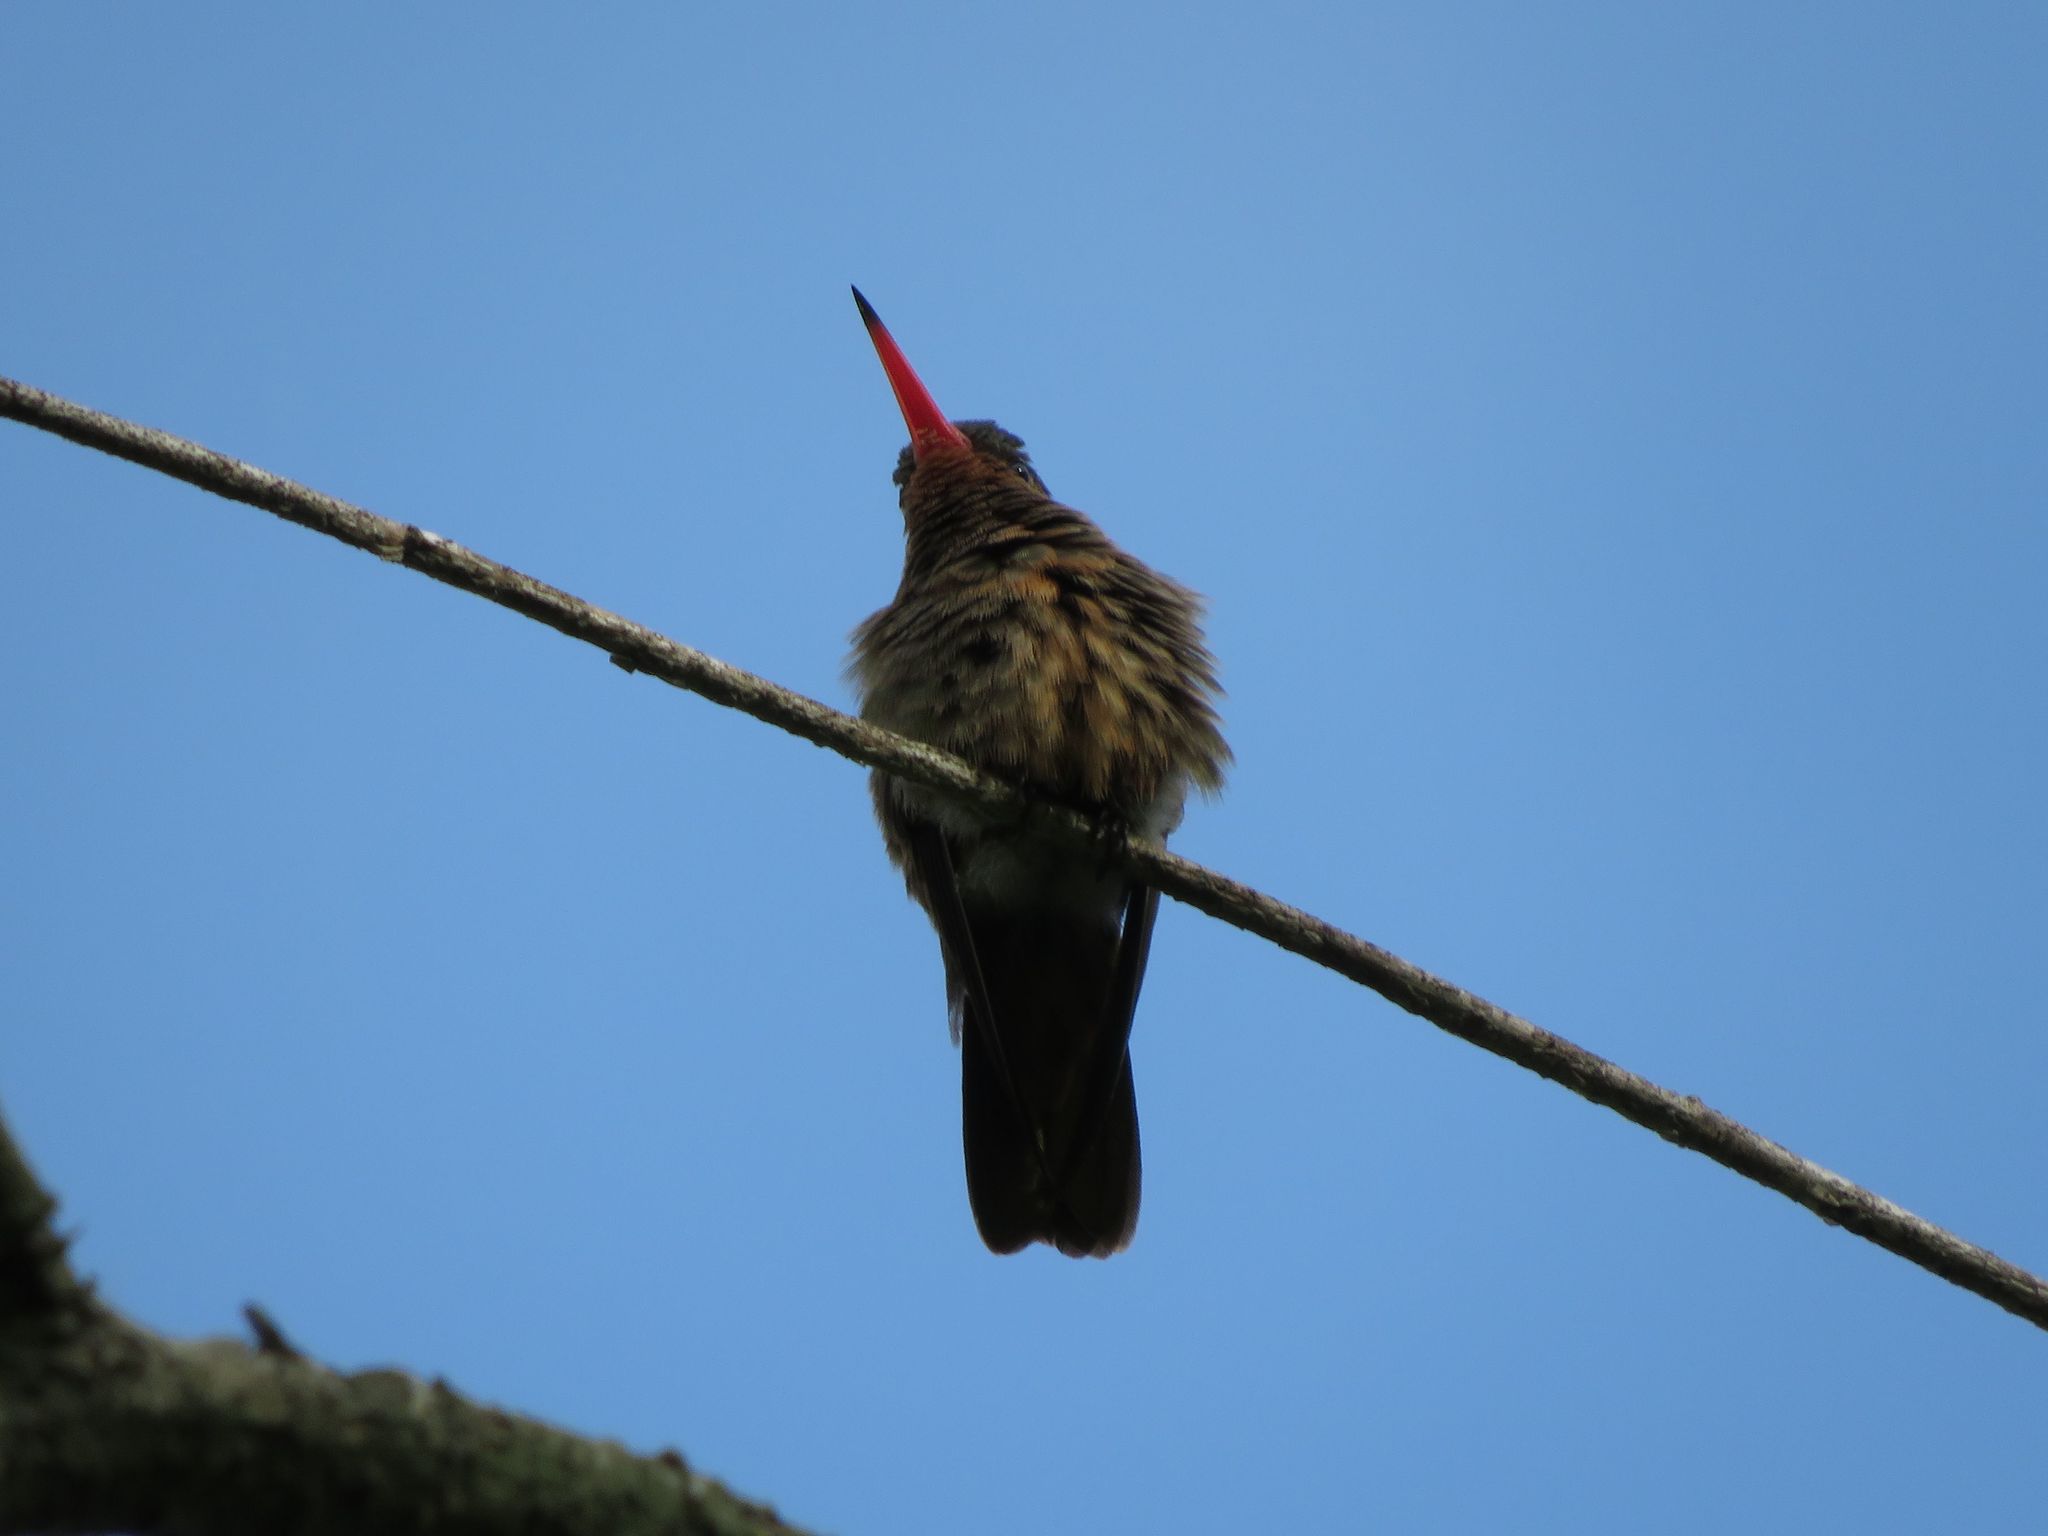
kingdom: Animalia
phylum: Chordata
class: Aves
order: Apodiformes
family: Trochilidae
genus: Hylocharis
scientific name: Hylocharis chrysura
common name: Gilded sapphire
